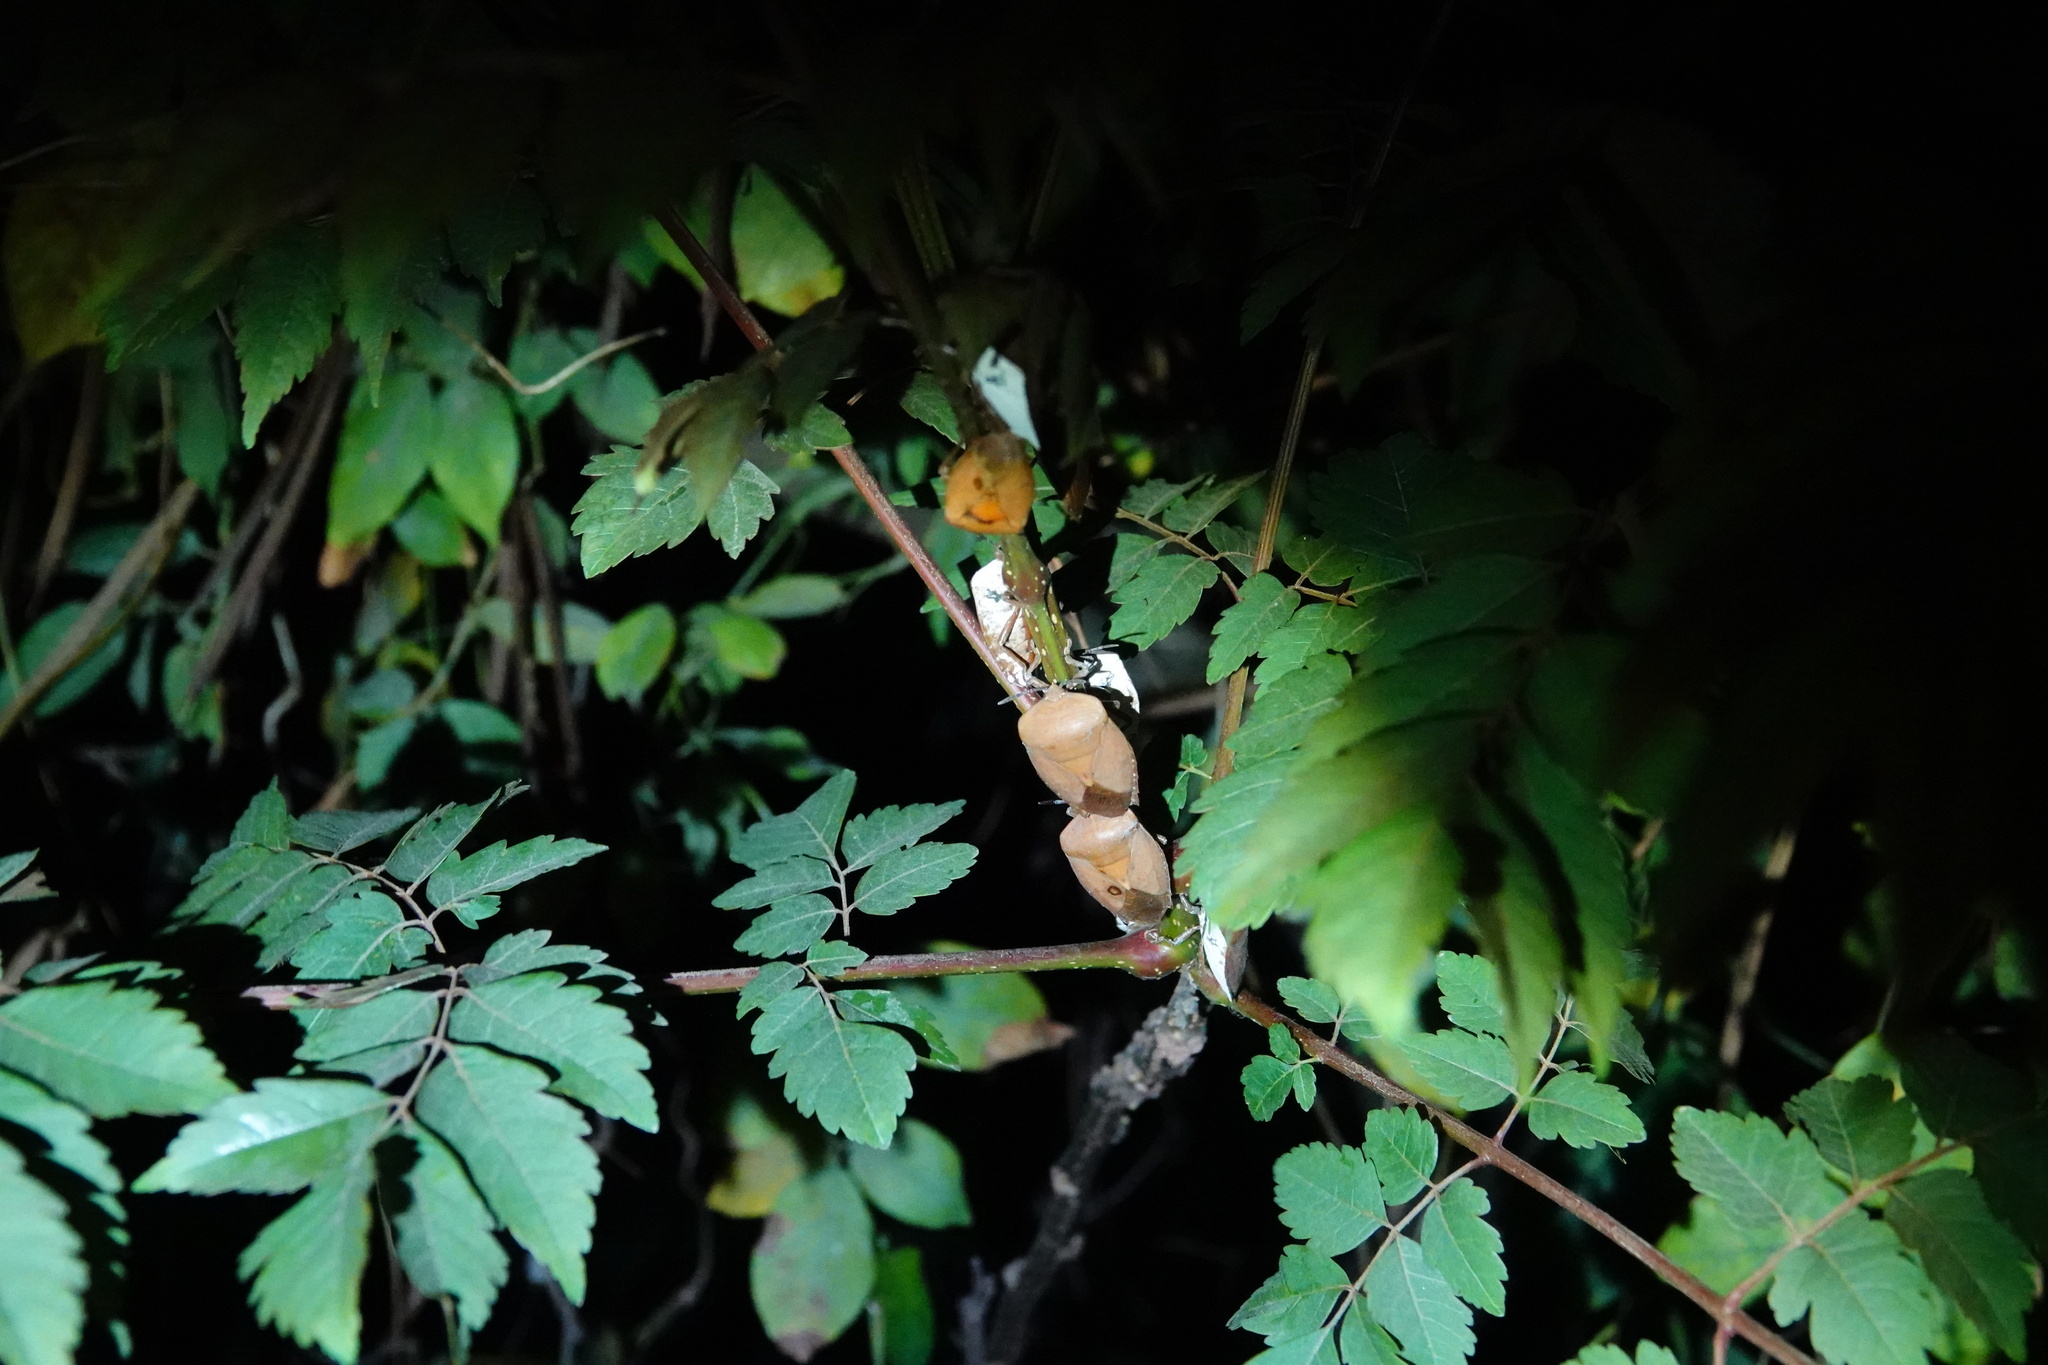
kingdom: Animalia
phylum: Arthropoda
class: Insecta
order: Hemiptera
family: Tessaratomidae
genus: Tessaratoma
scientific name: Tessaratoma papillosa
